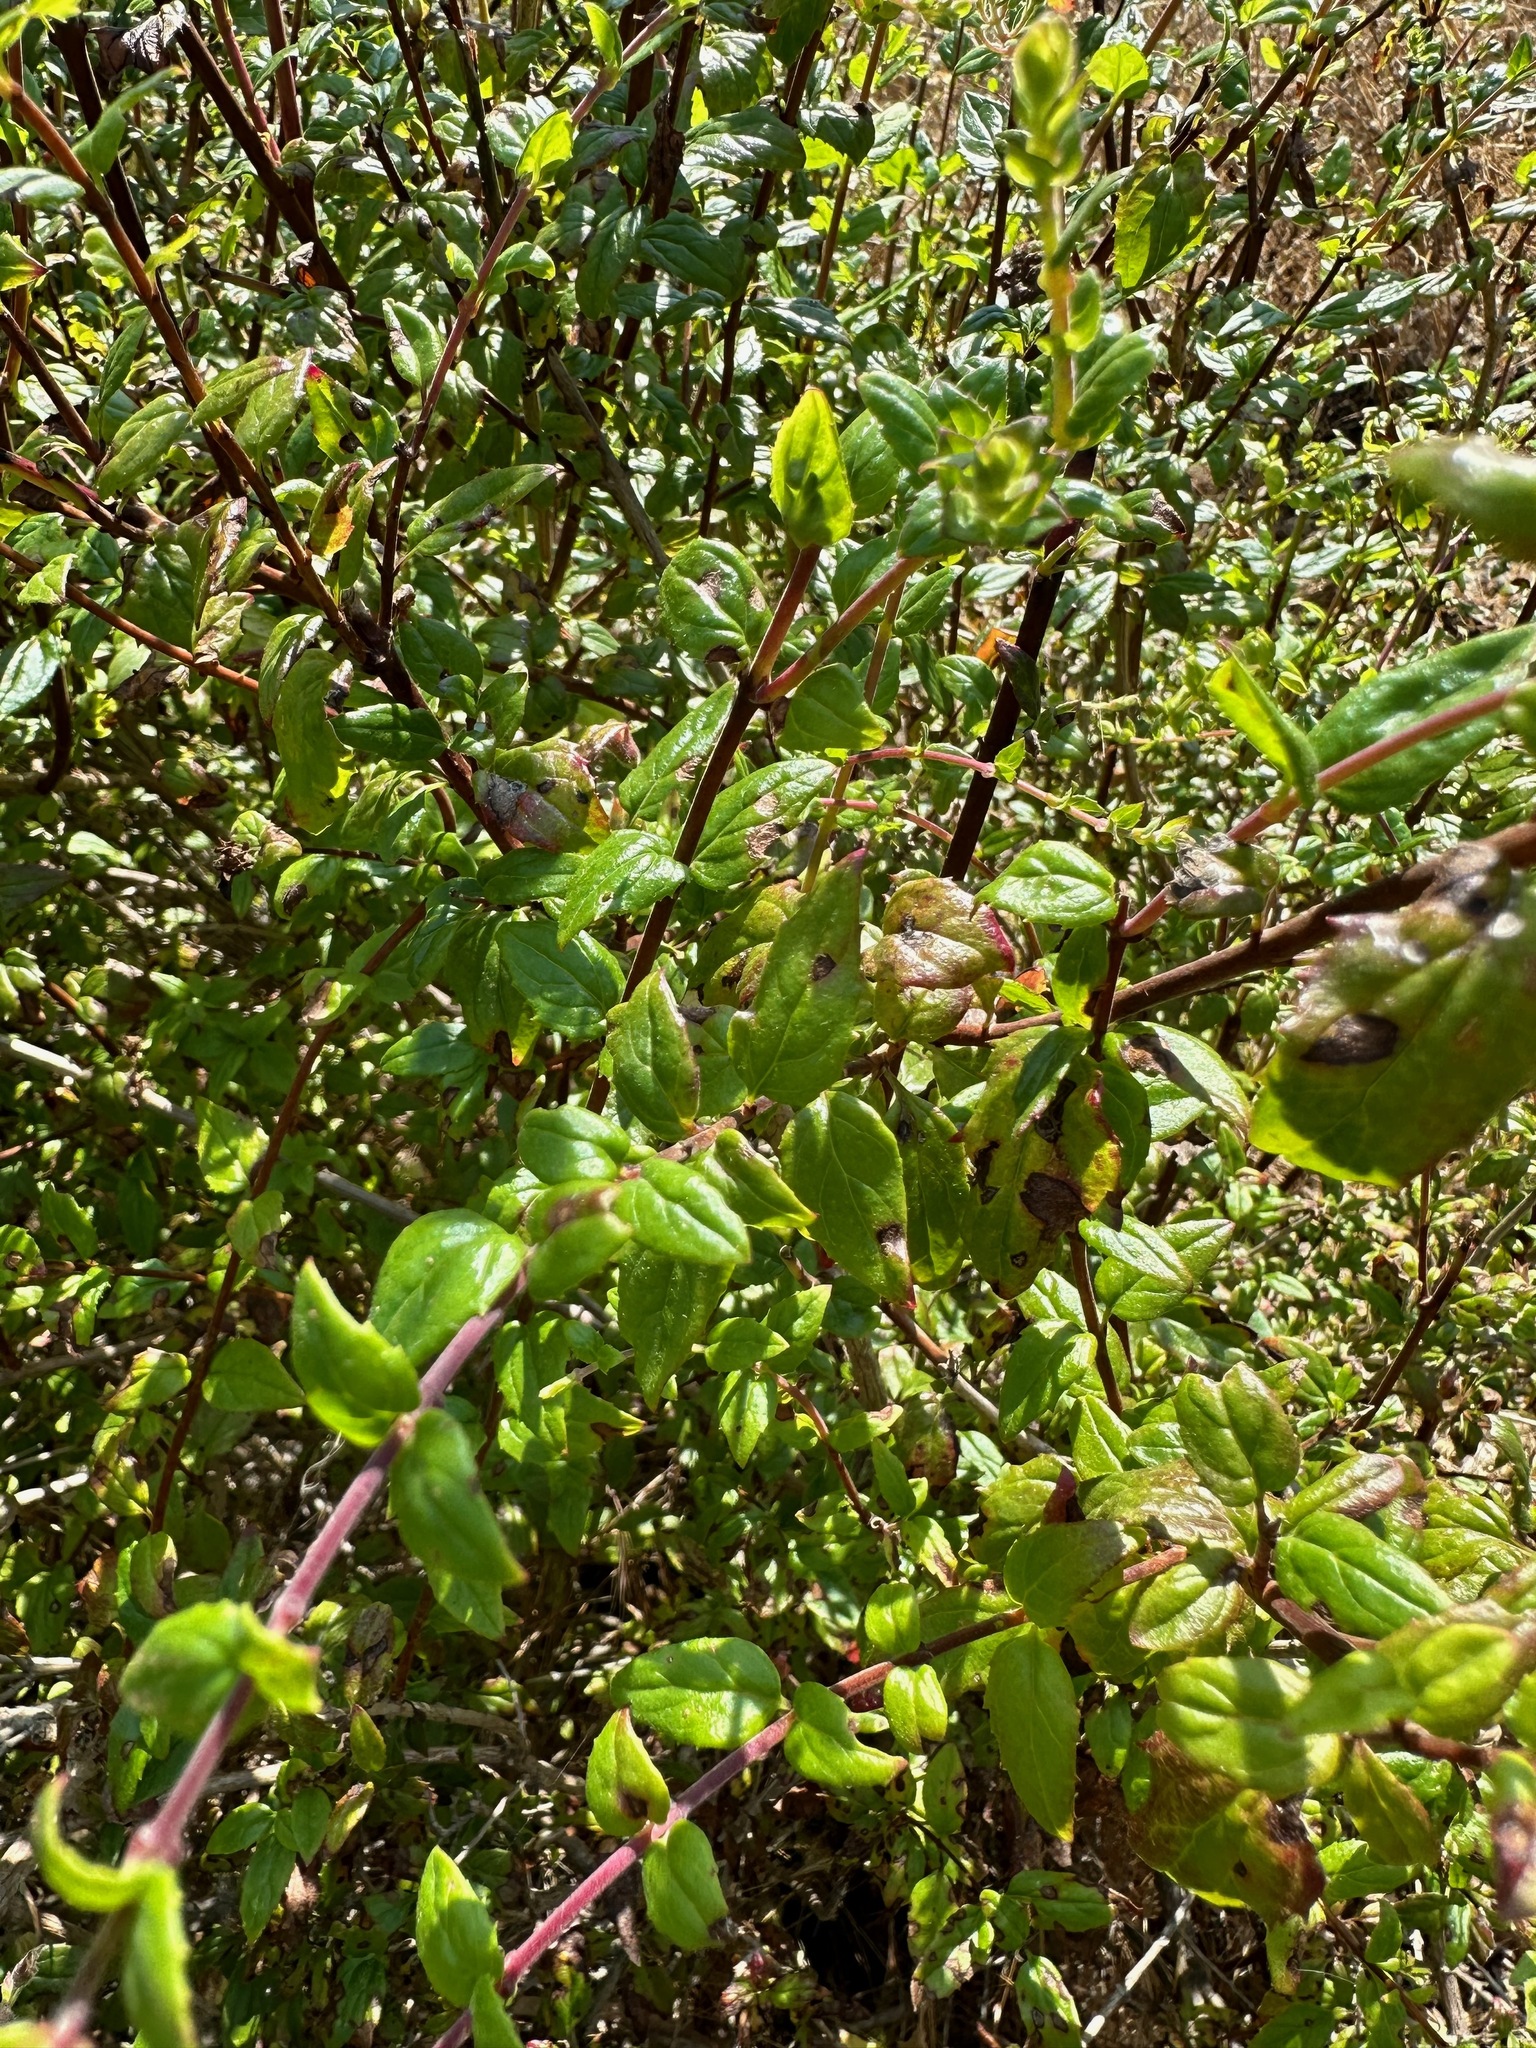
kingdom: Plantae
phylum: Tracheophyta
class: Magnoliopsida
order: Lamiales
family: Plantaginaceae
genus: Keckiella
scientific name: Keckiella cordifolia
